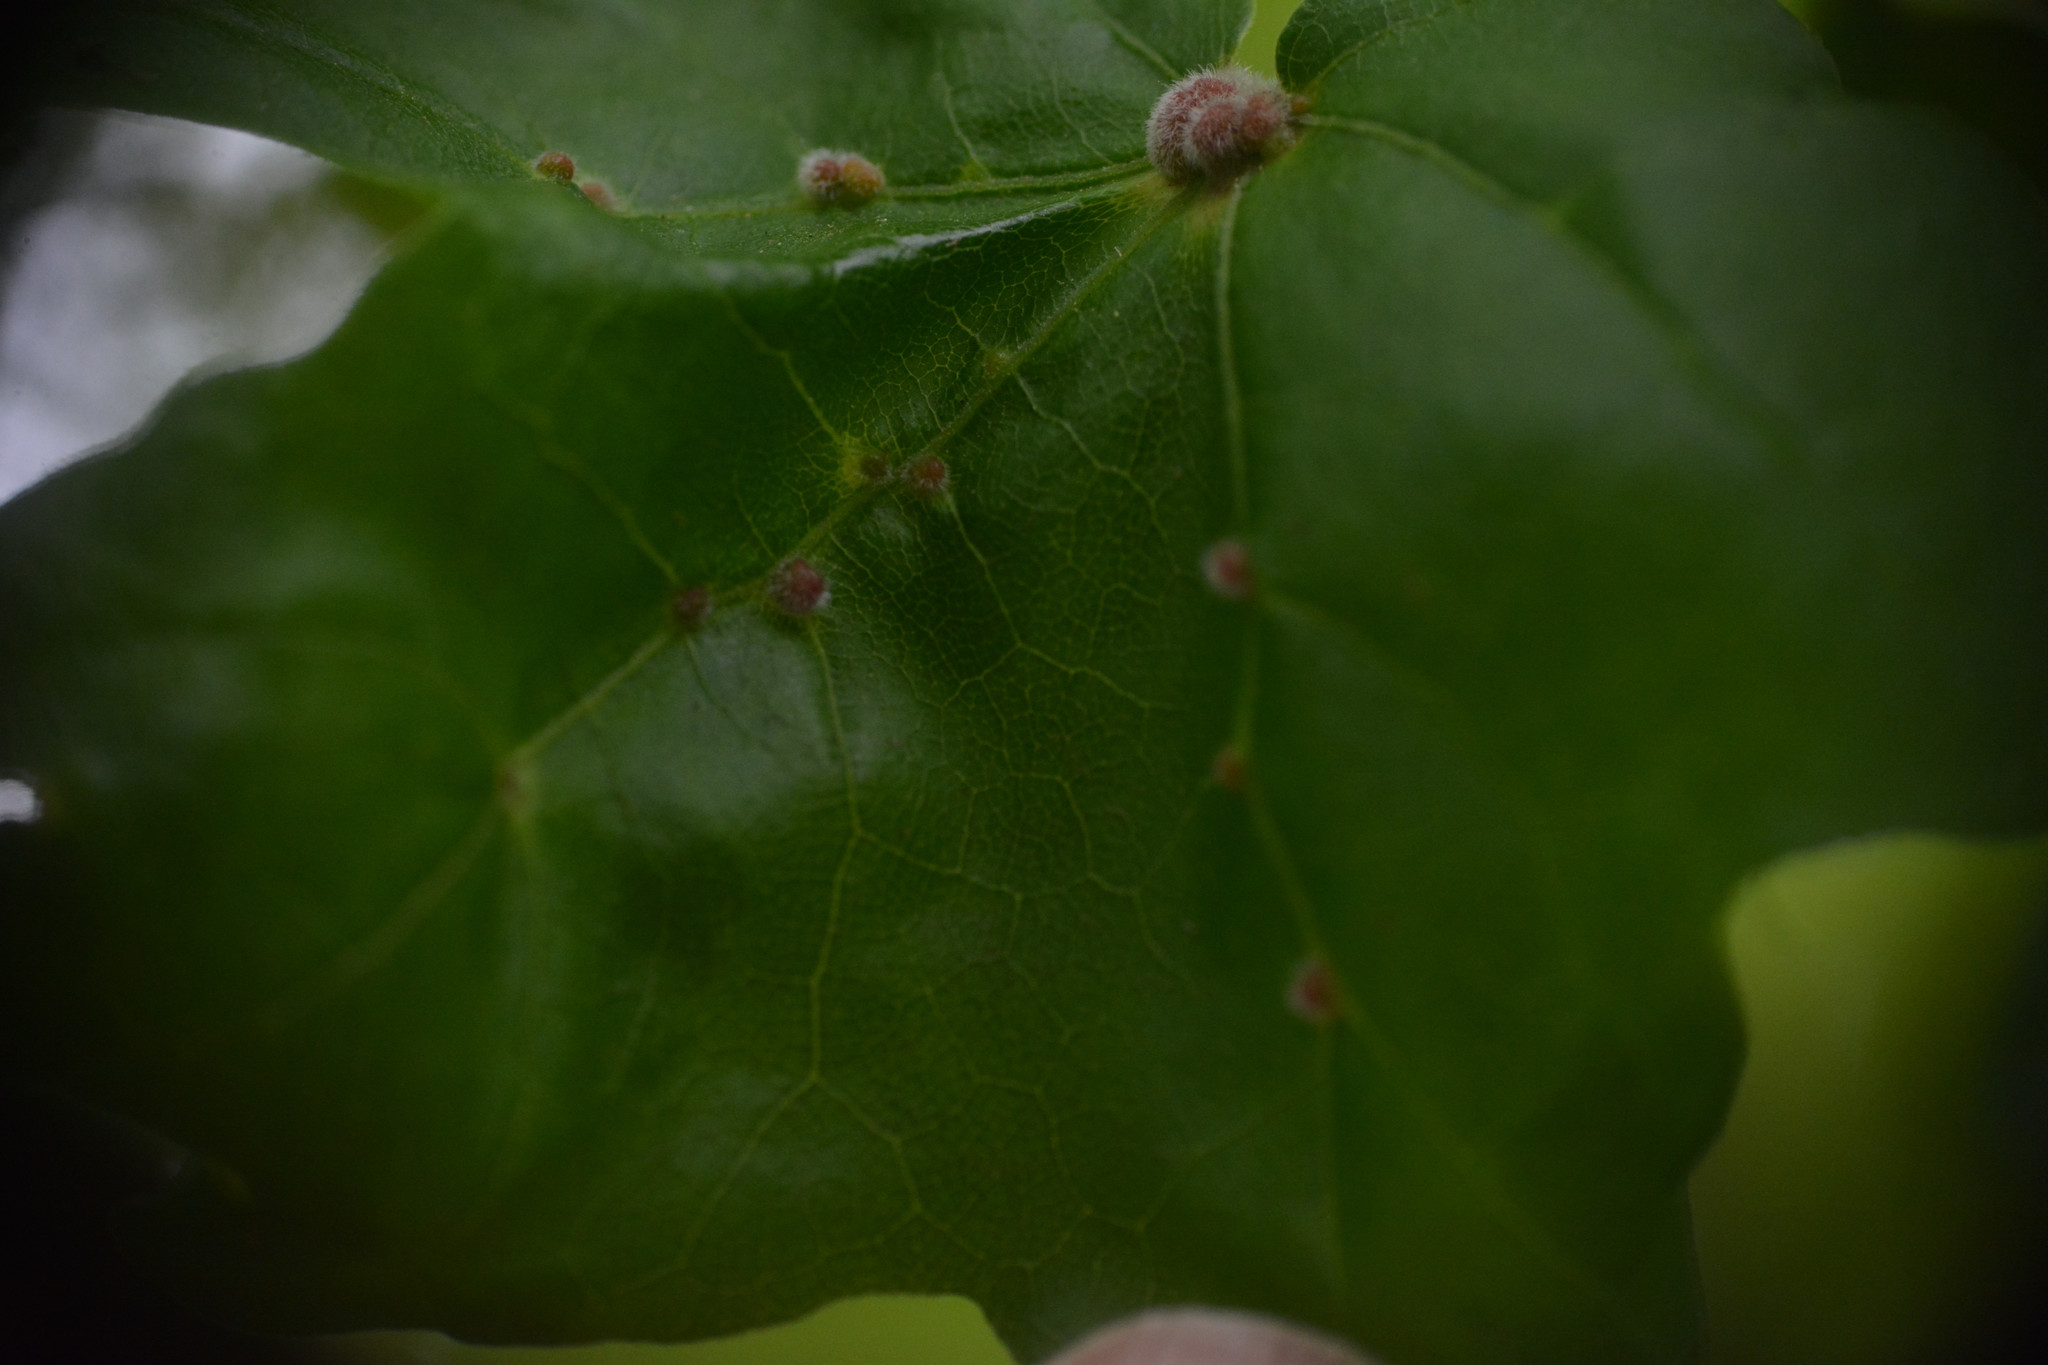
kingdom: Animalia
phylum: Arthropoda
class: Arachnida
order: Trombidiformes
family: Eriophyidae
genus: Aceria
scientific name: Aceria macrochelus
